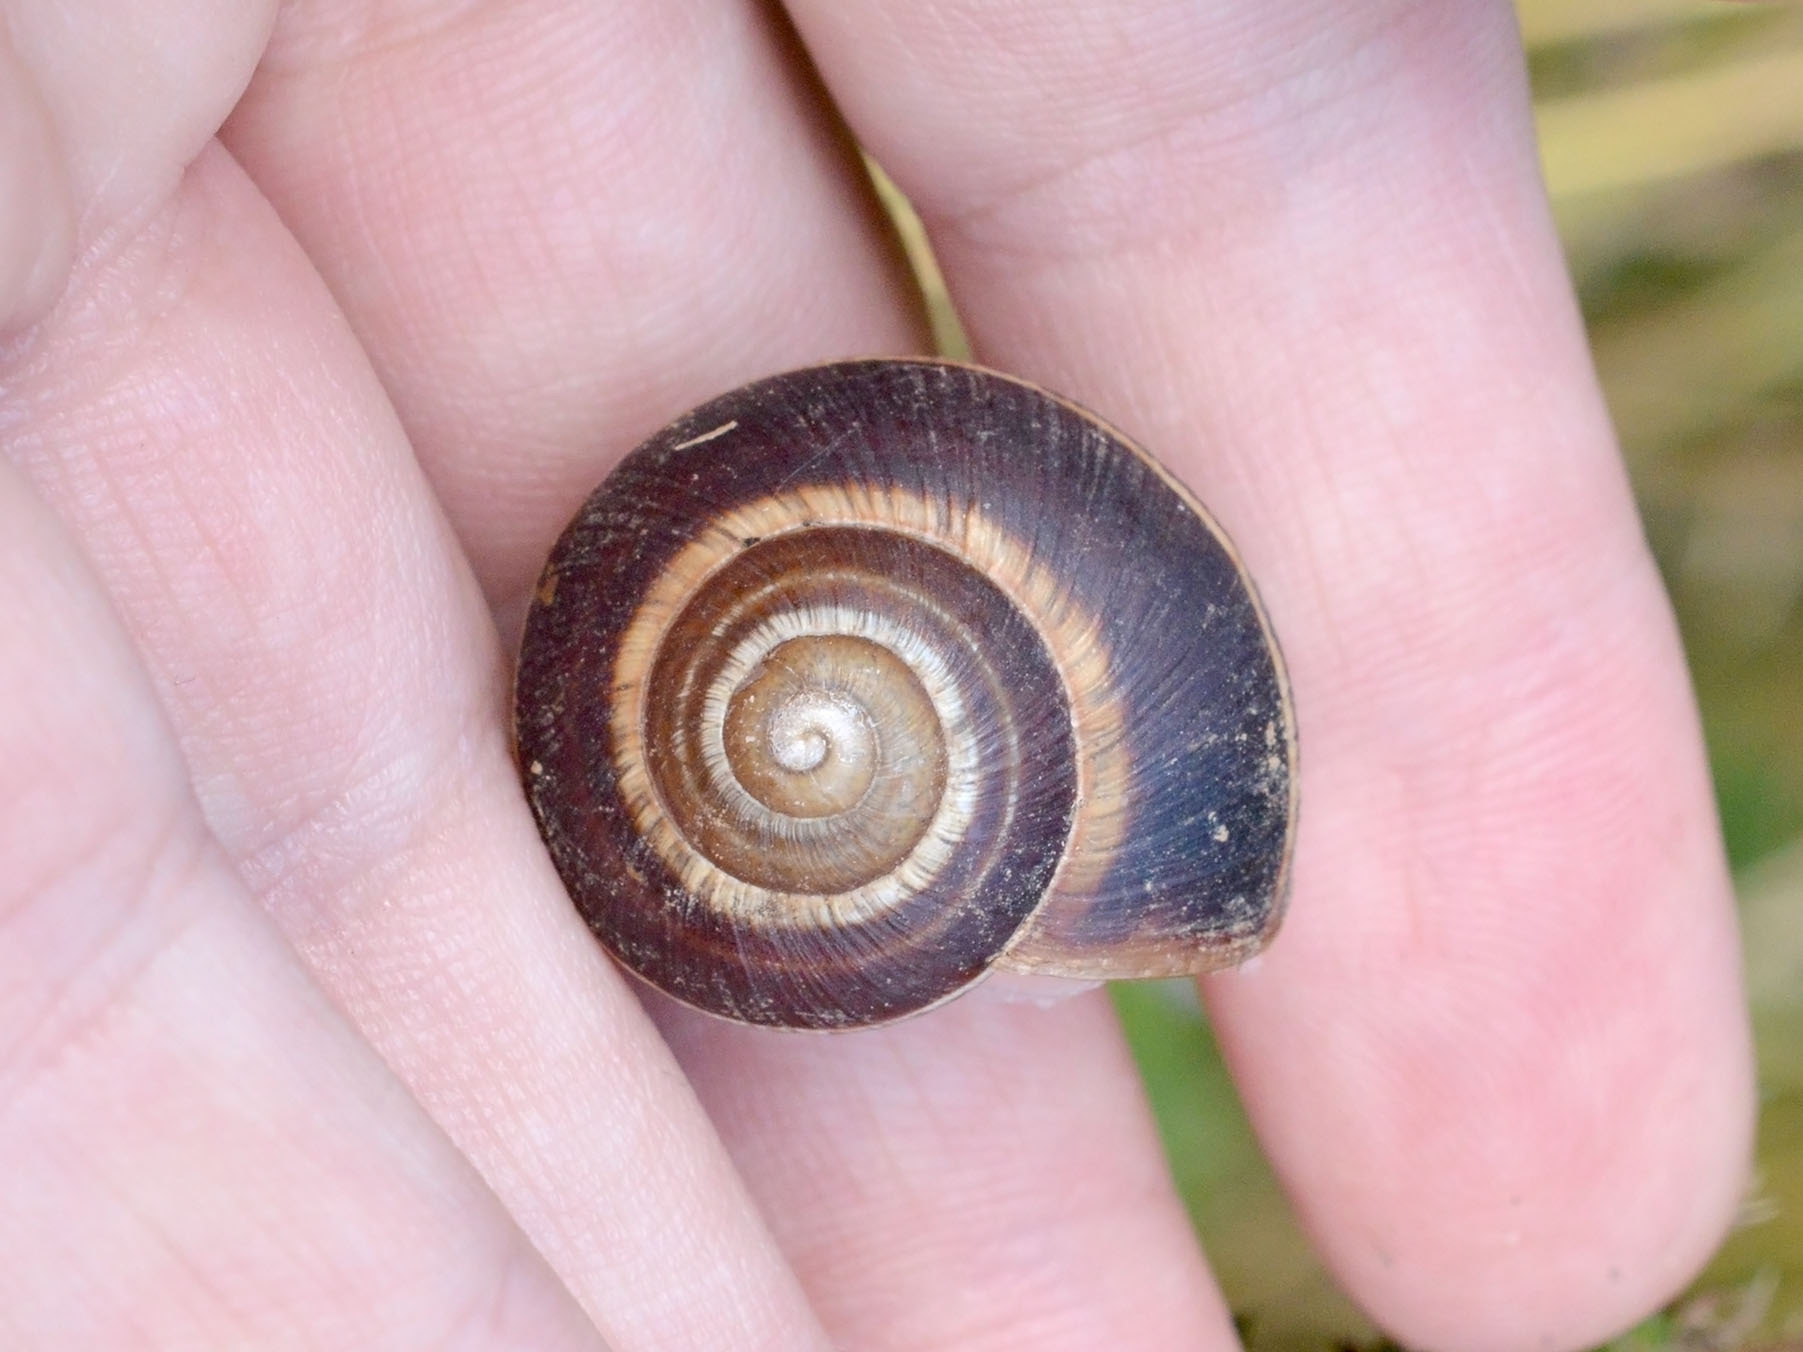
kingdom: Animalia
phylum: Mollusca
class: Gastropoda
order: Stylommatophora
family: Helicidae
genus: Helix
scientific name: Helix lucorum
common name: Turkish snail
